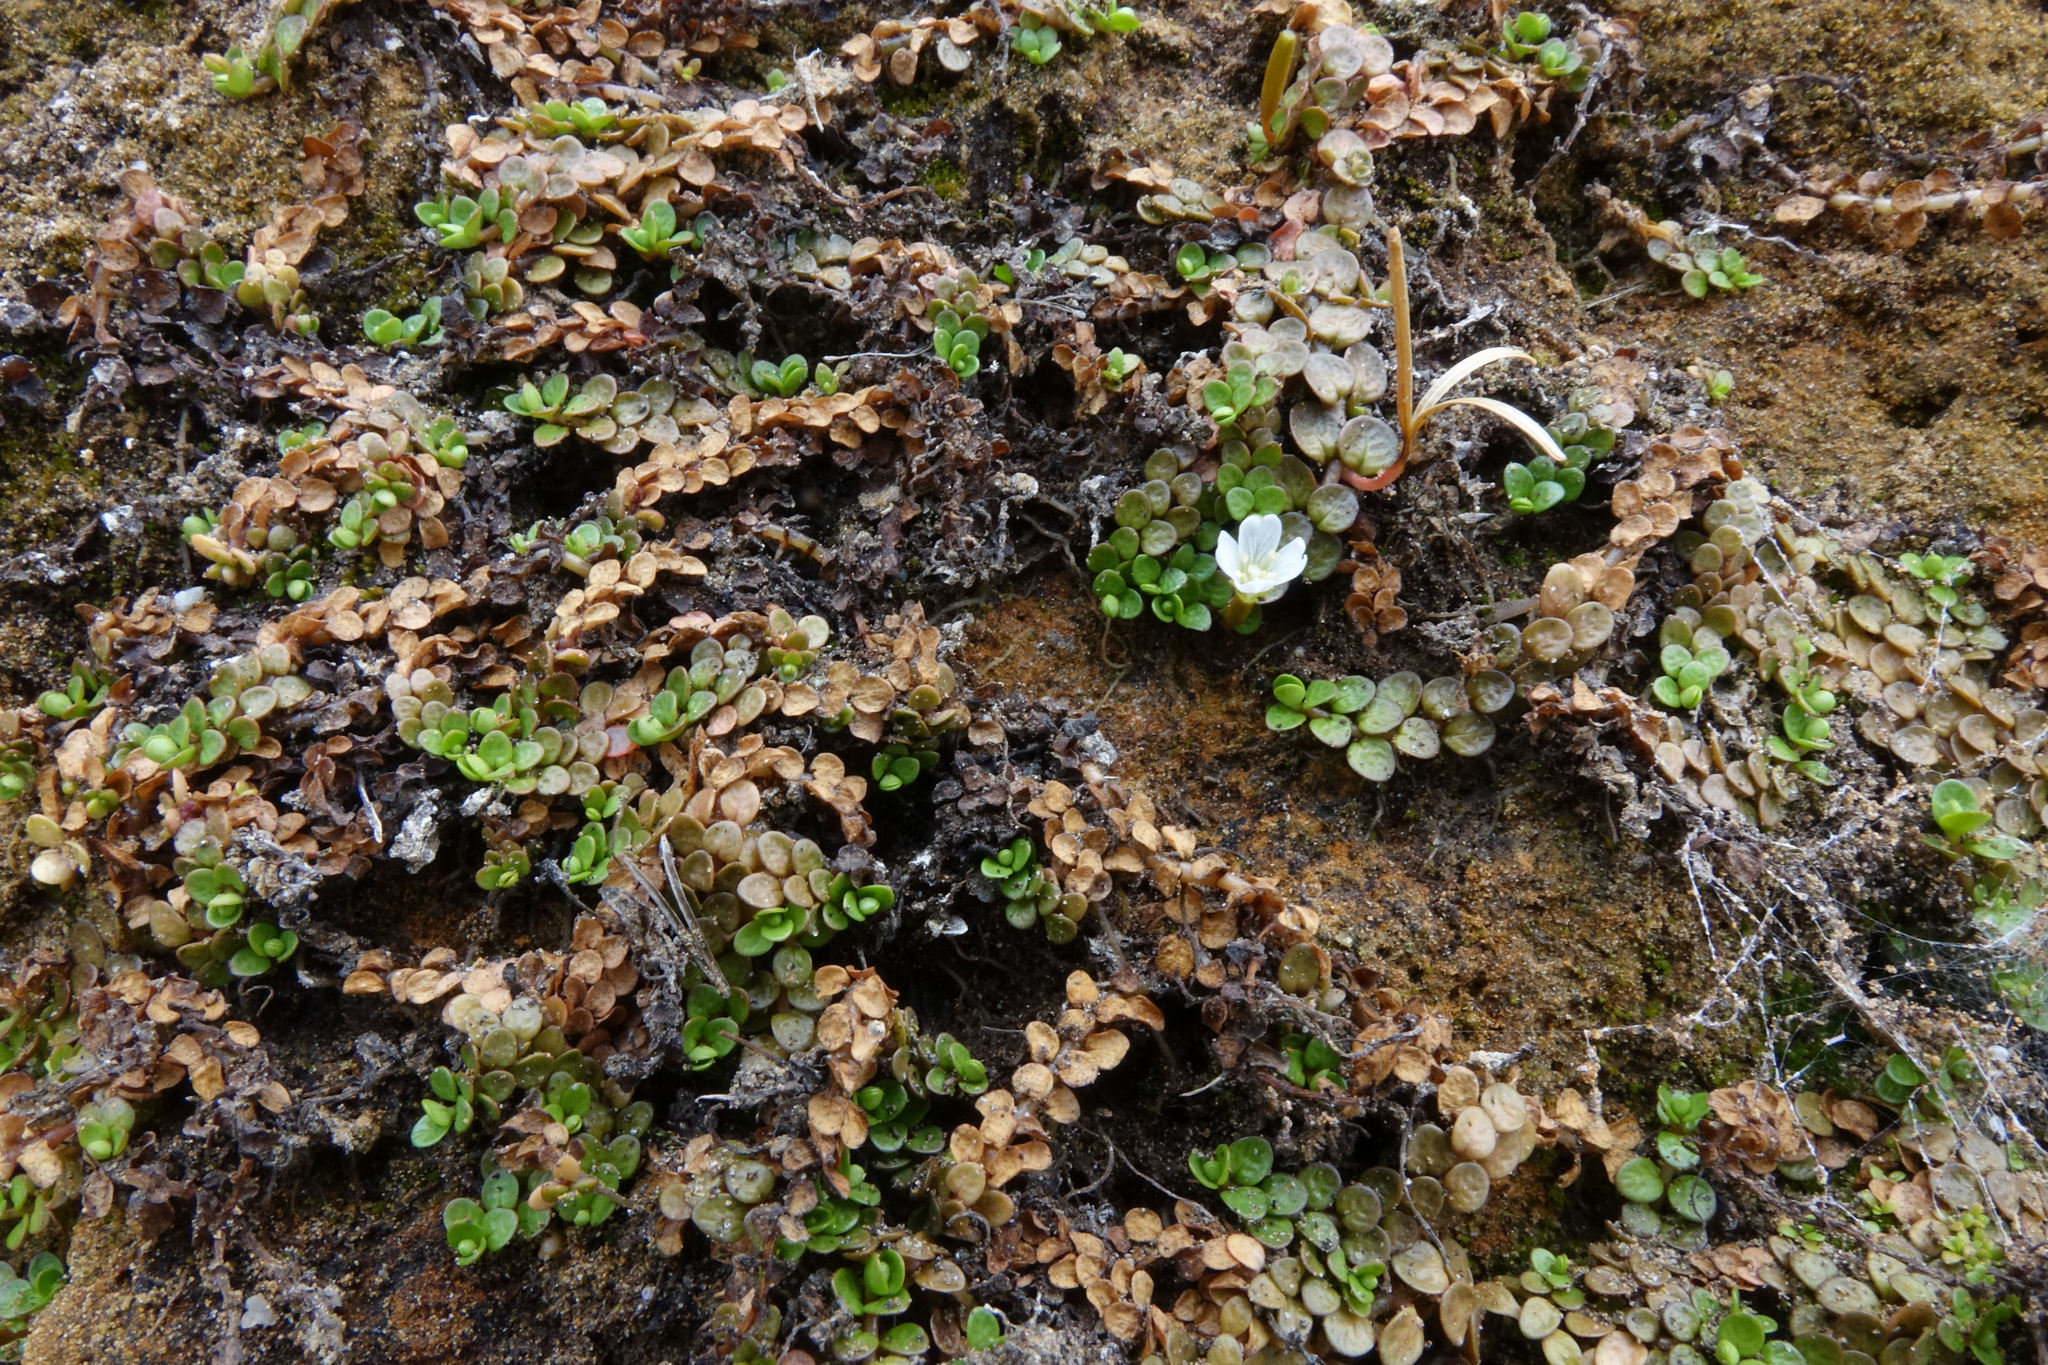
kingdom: Plantae
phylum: Tracheophyta
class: Magnoliopsida
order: Myrtales
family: Onagraceae
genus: Epilobium
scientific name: Epilobium komarovianum
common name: Bronzy willowherb
